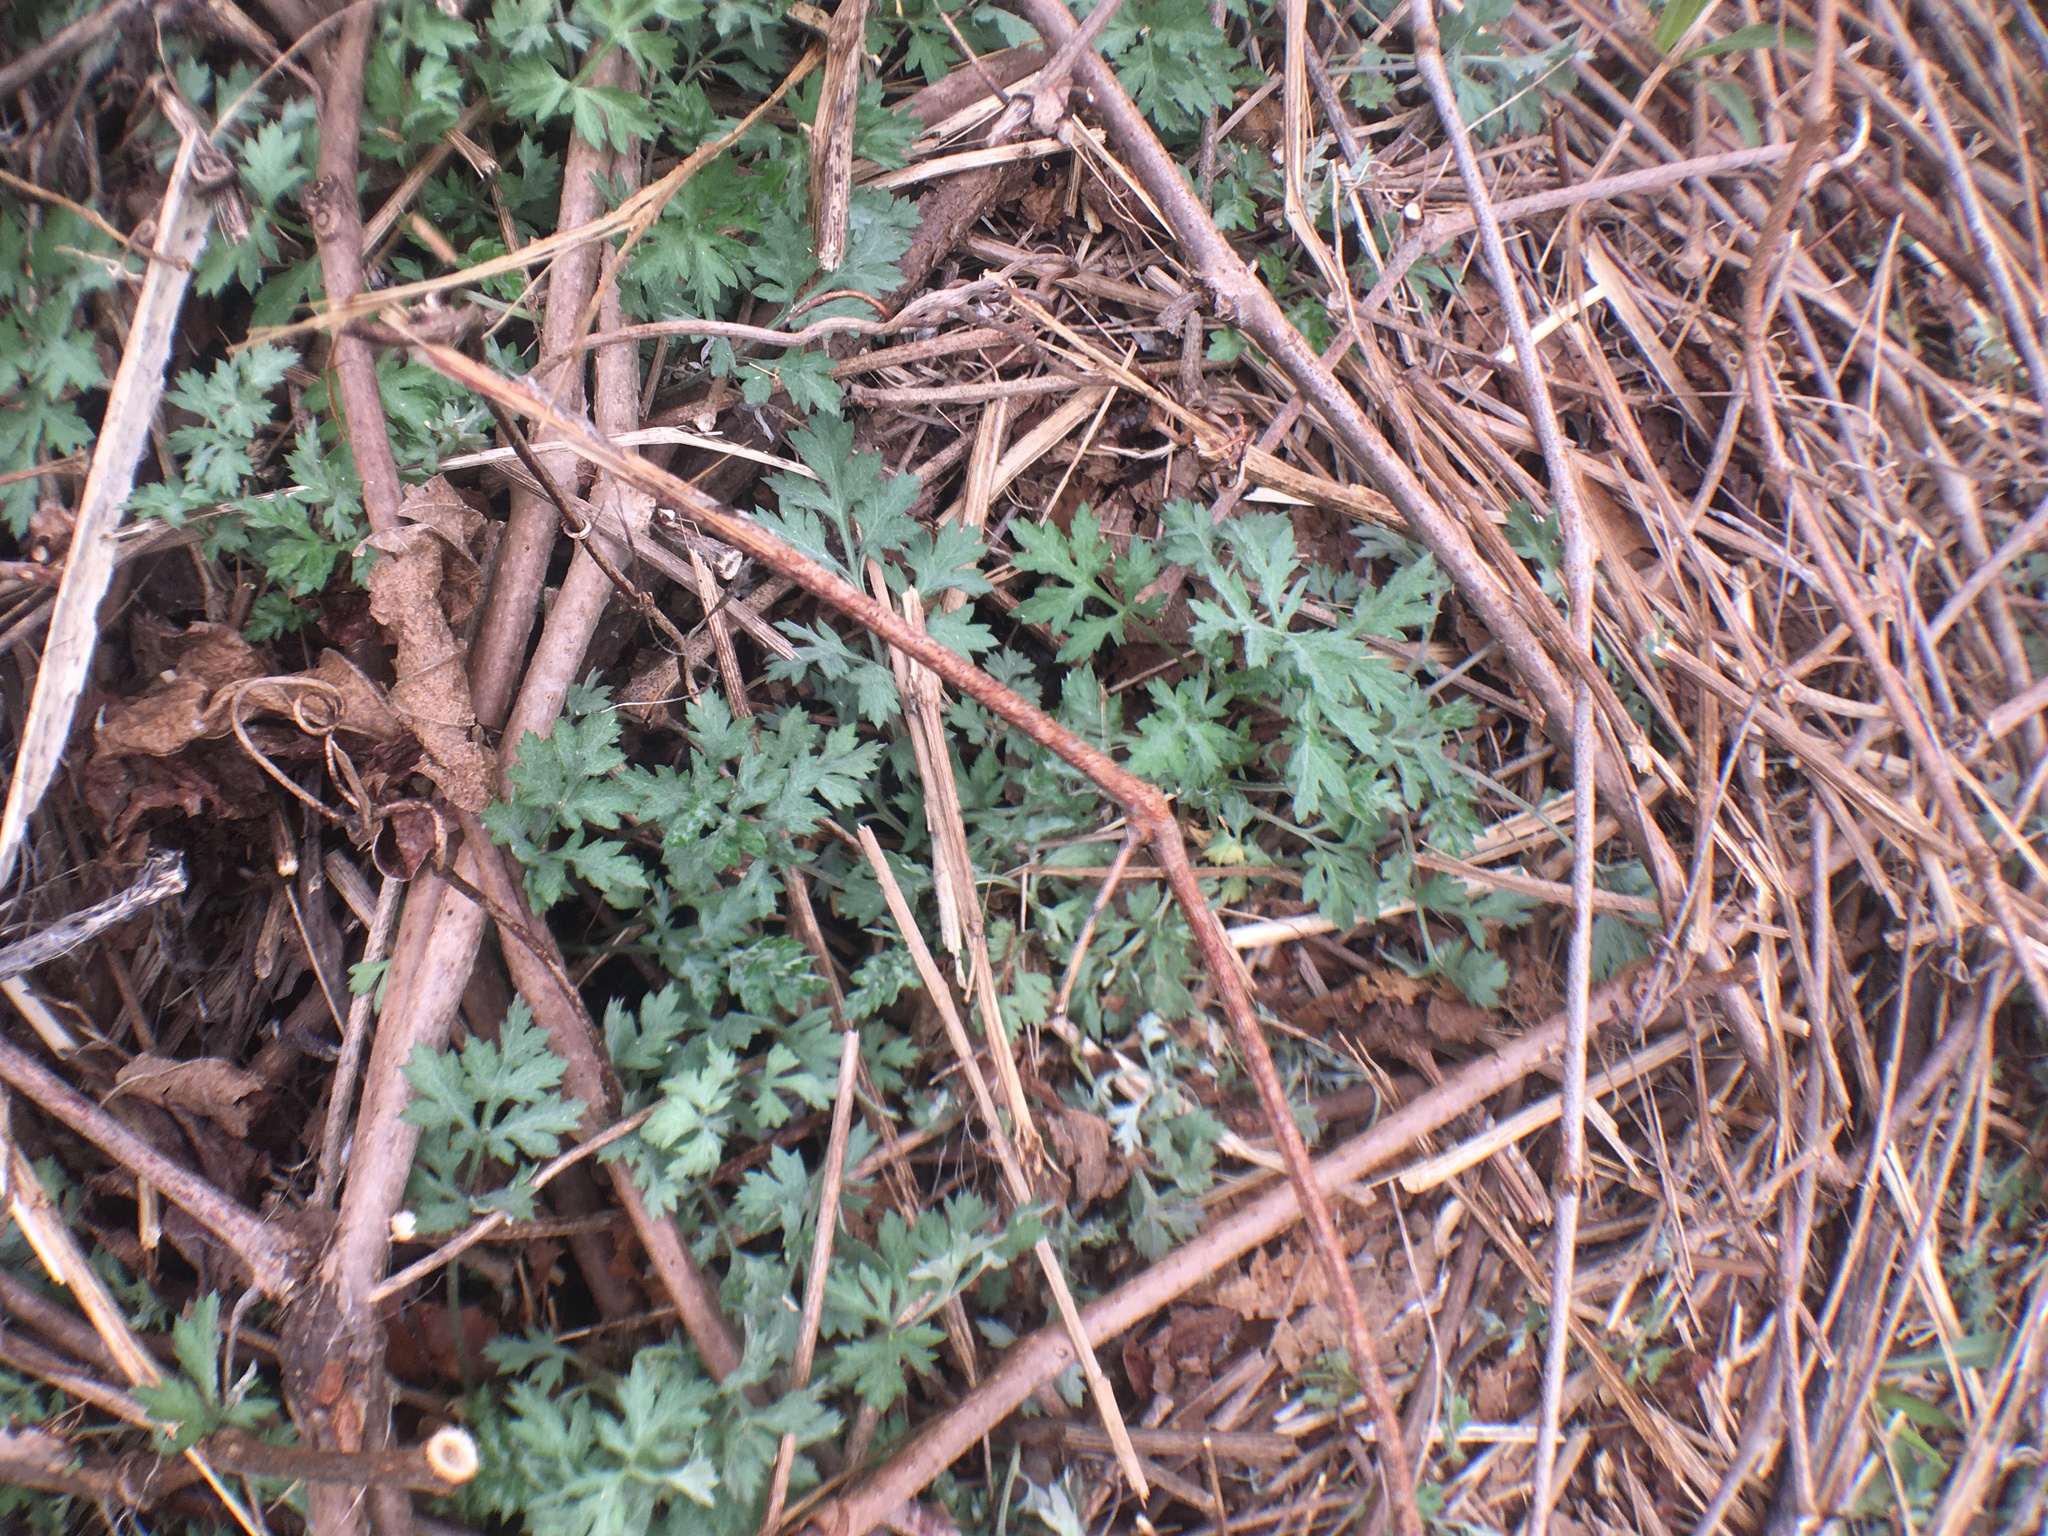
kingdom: Plantae
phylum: Tracheophyta
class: Magnoliopsida
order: Asterales
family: Asteraceae
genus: Artemisia
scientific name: Artemisia vulgaris
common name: Mugwort
